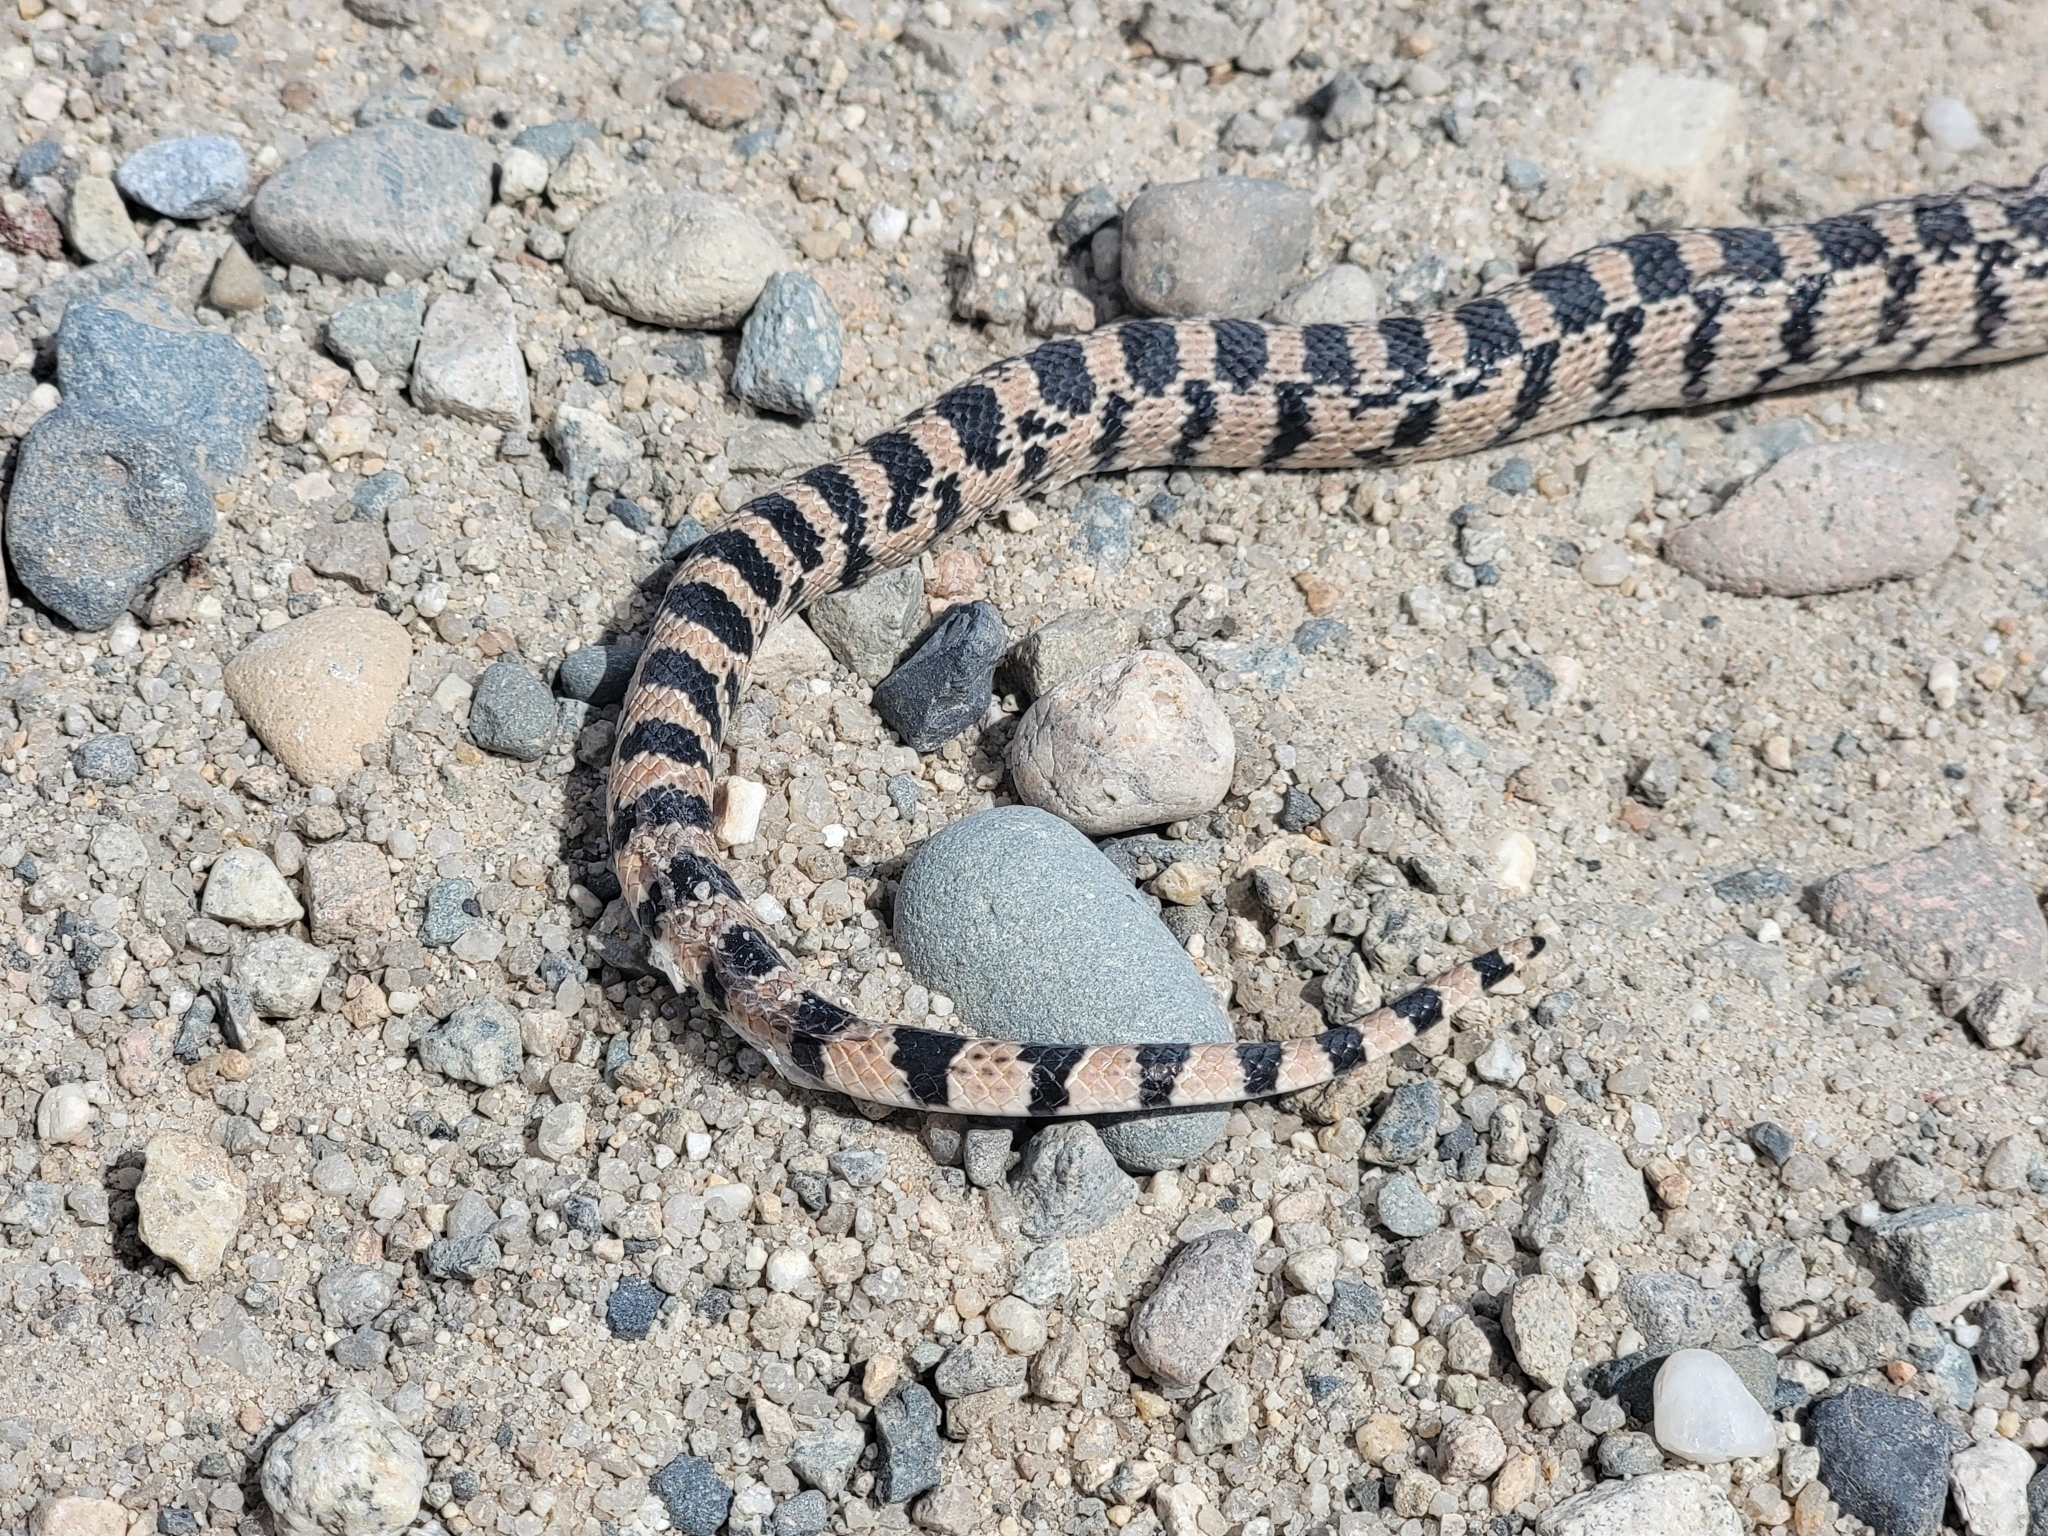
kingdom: Animalia
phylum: Chordata
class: Squamata
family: Colubridae
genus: Pituophis
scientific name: Pituophis catenifer
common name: Gopher snake
